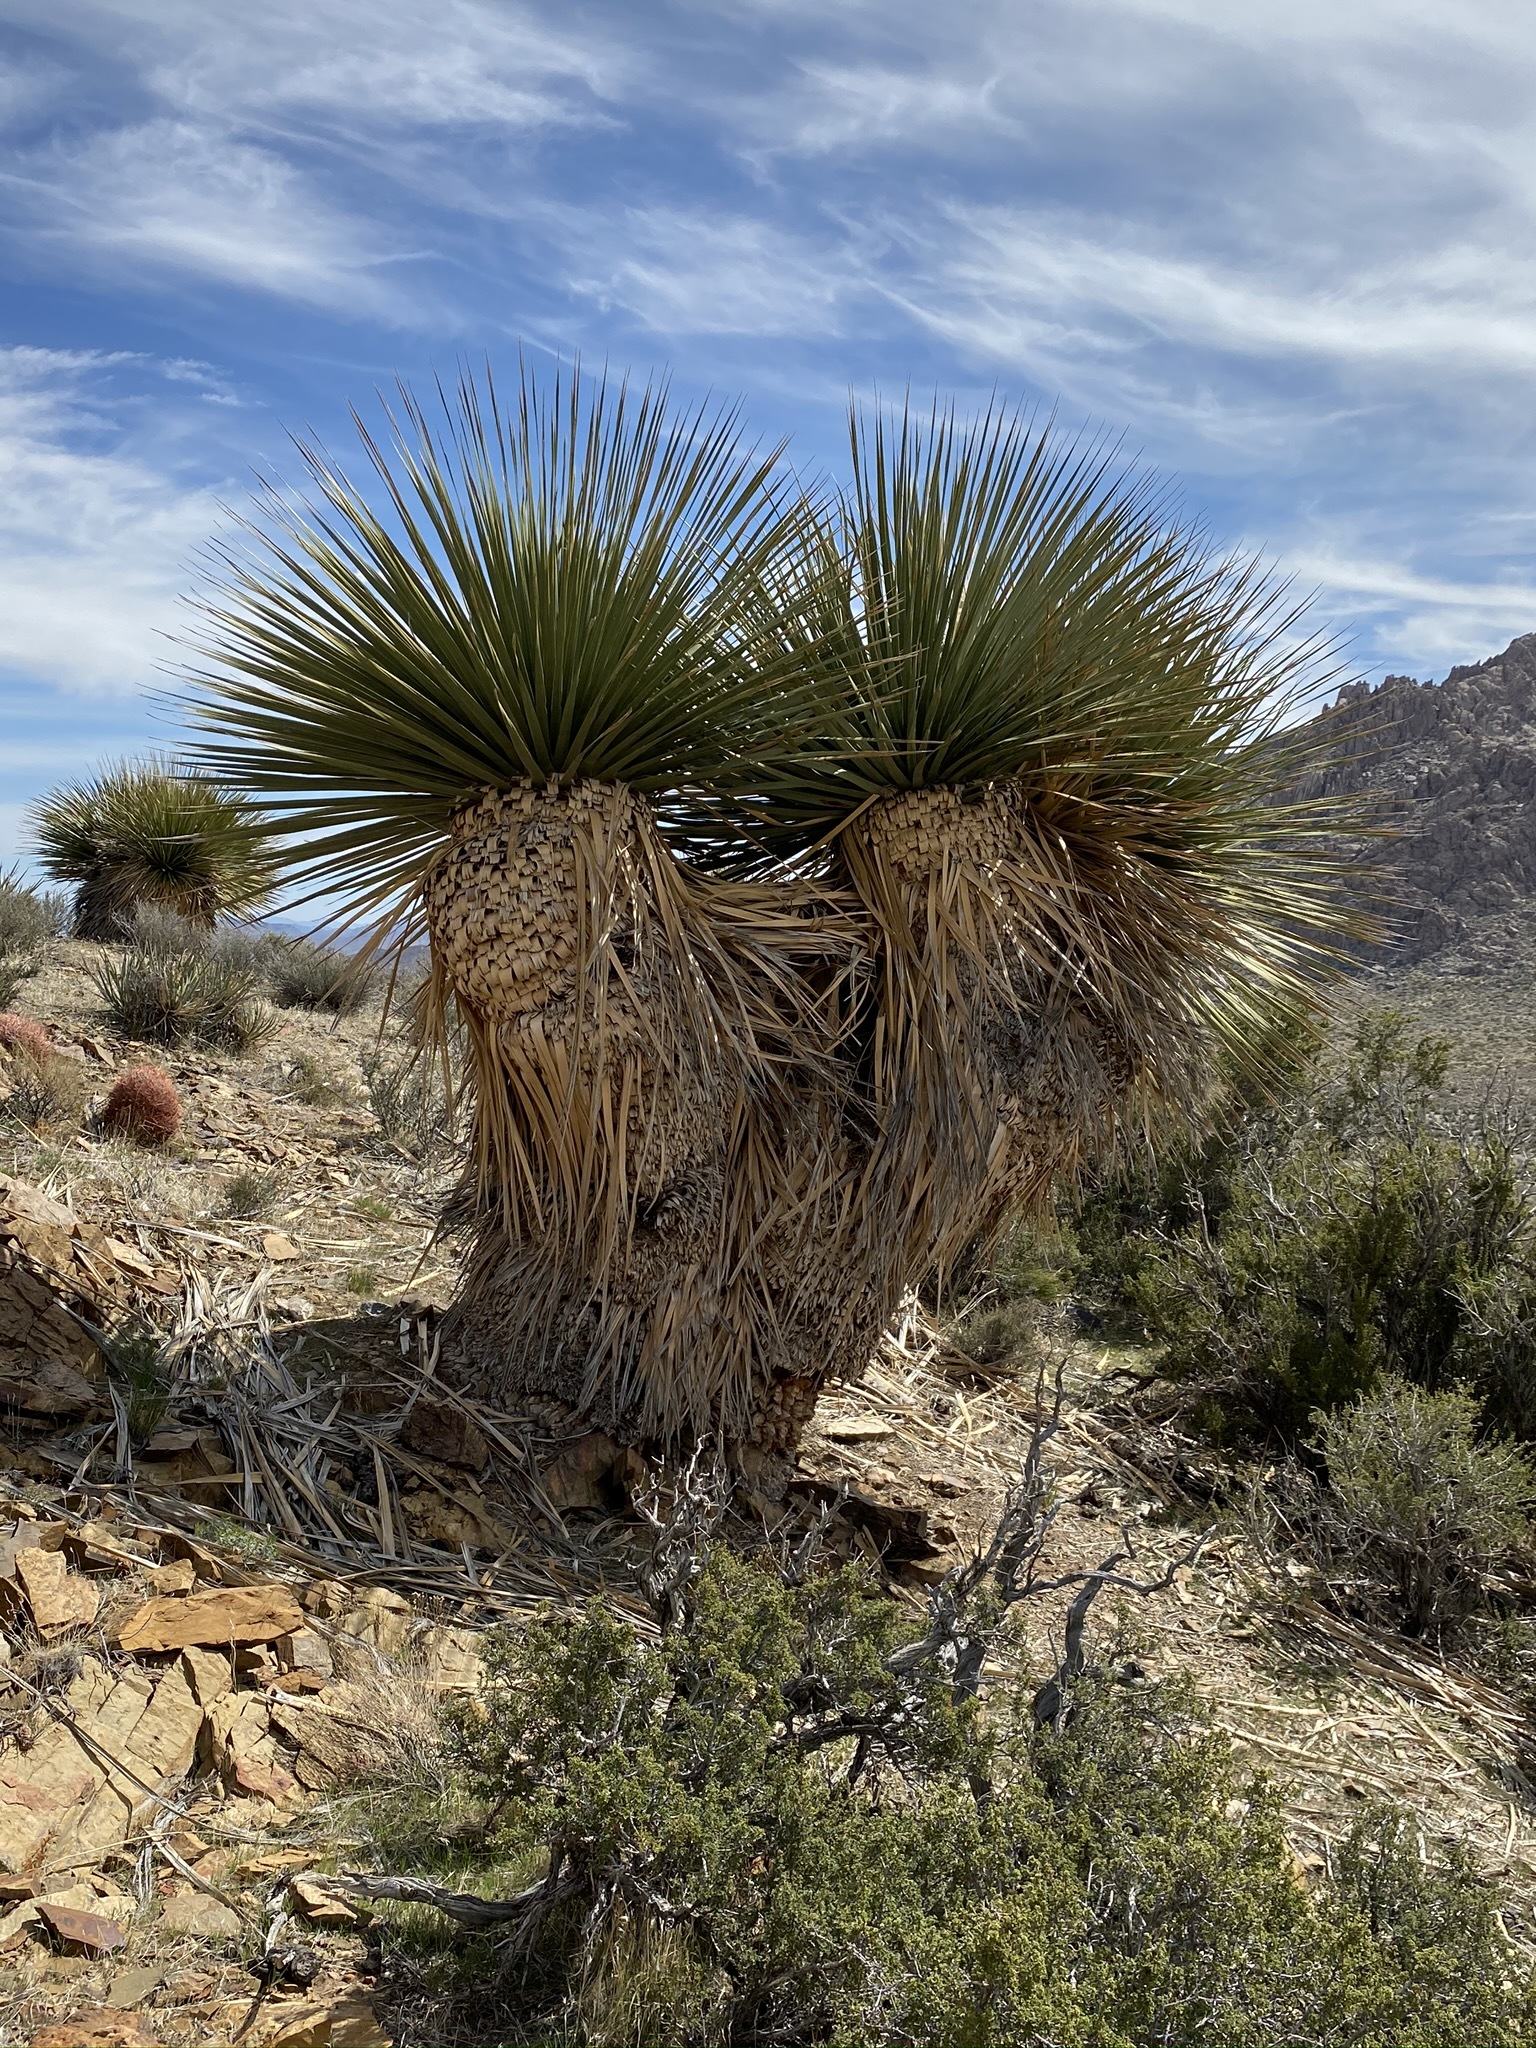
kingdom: Plantae
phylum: Tracheophyta
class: Liliopsida
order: Asparagales
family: Asparagaceae
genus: Nolina
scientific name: Nolina parryi
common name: Parry nolina
